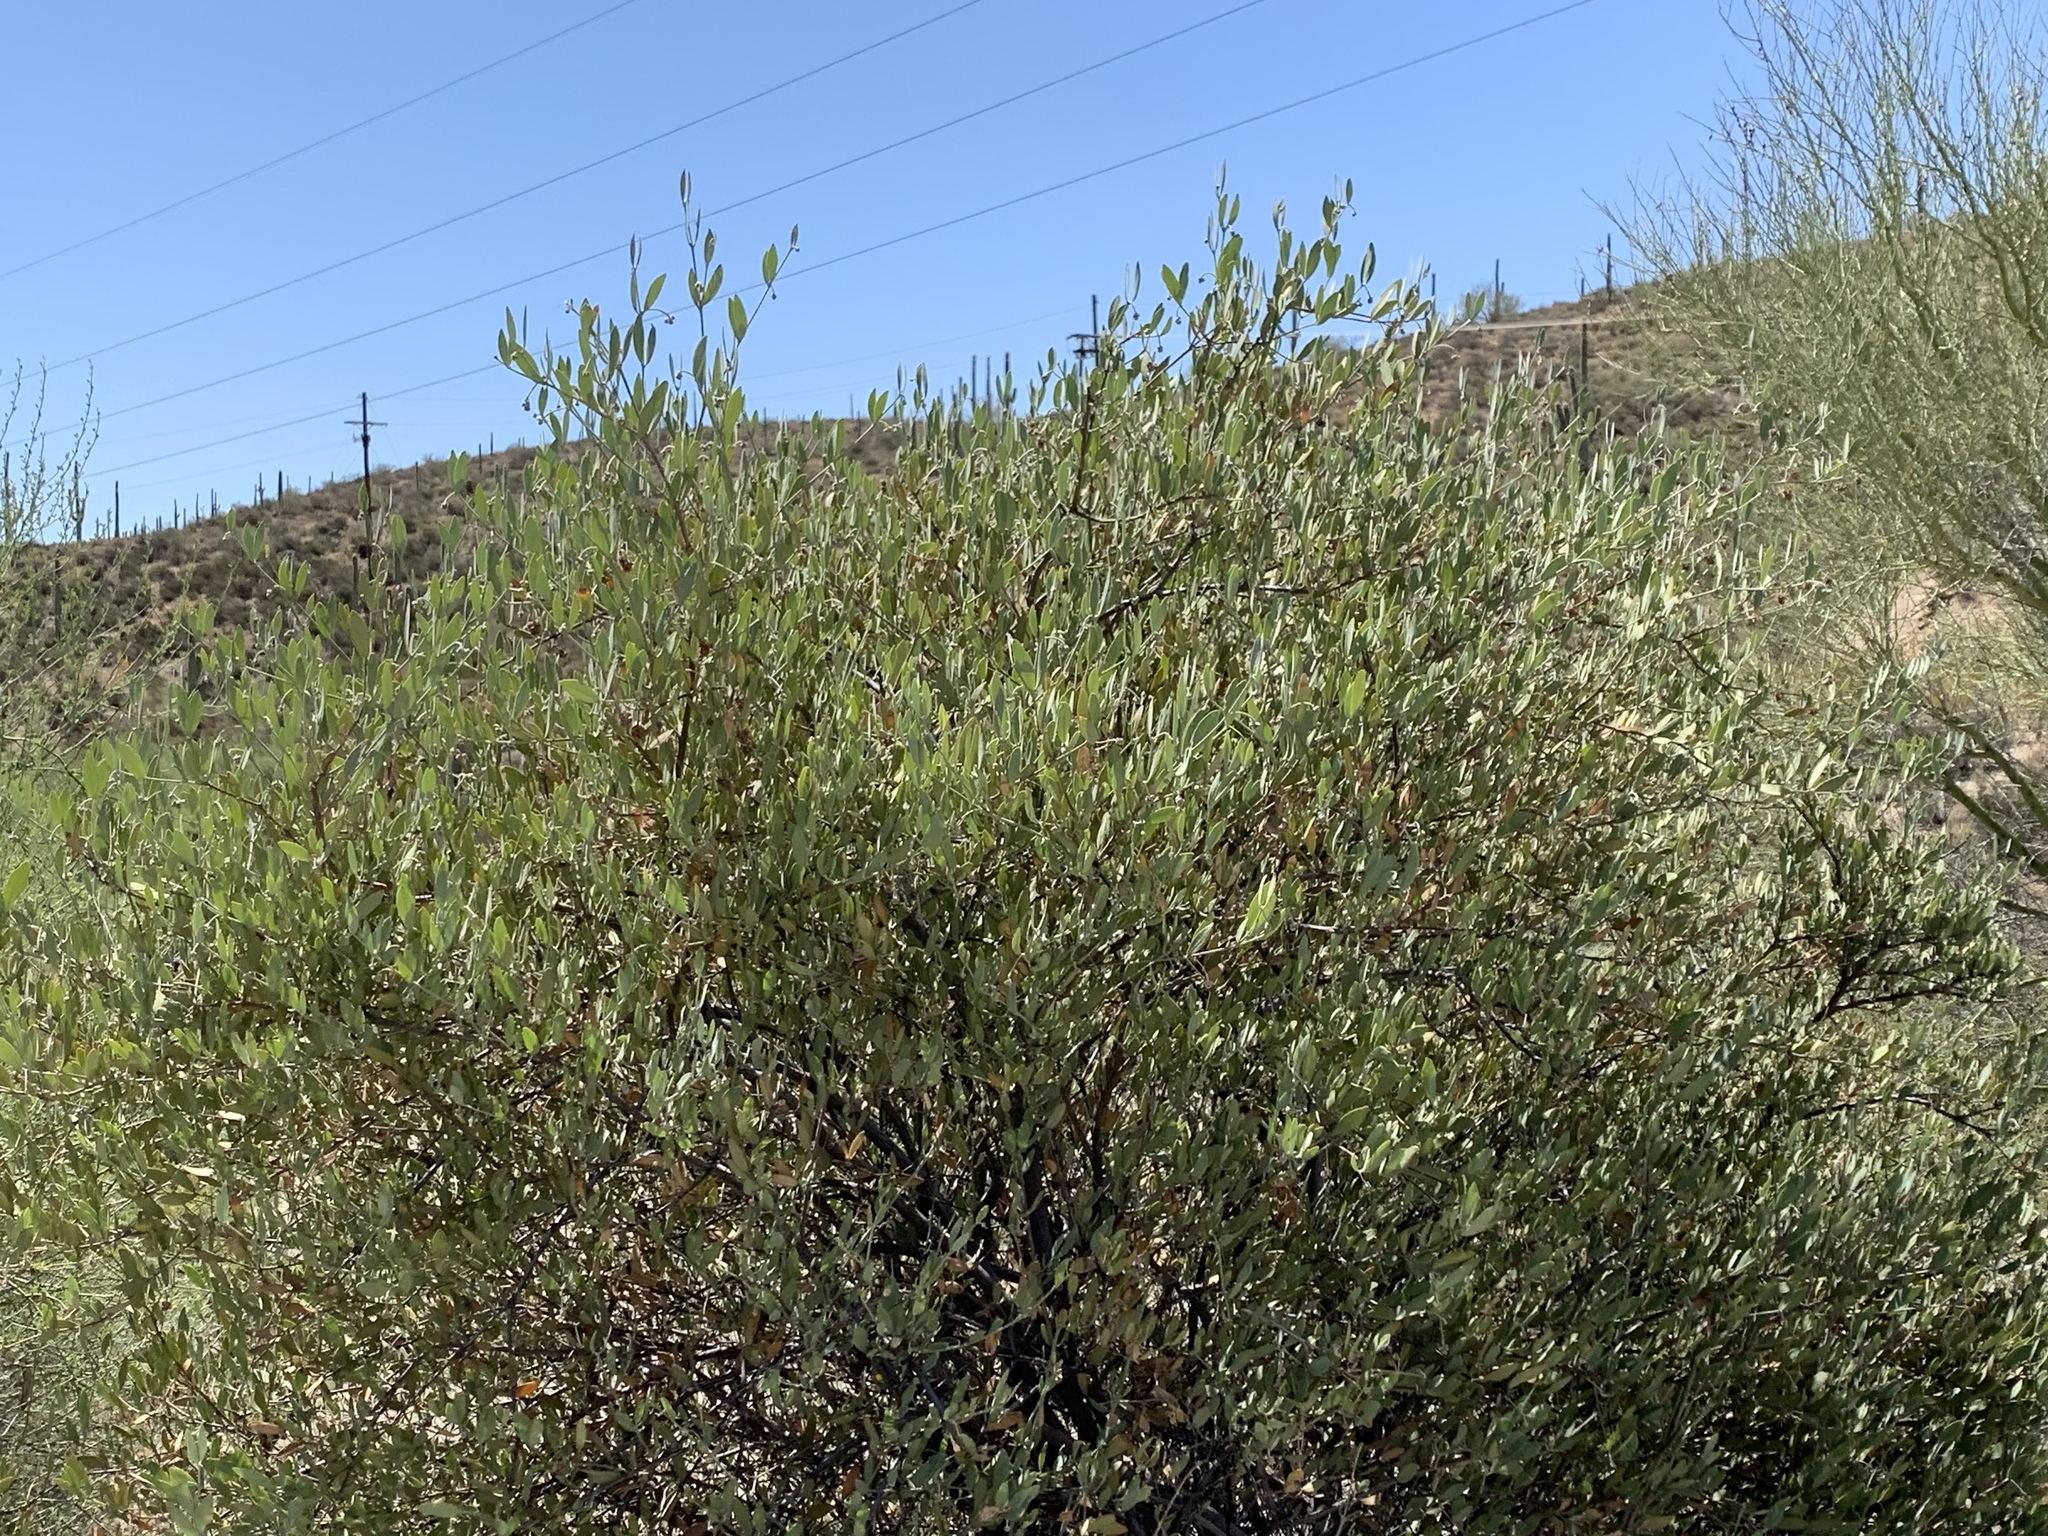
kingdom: Plantae
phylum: Tracheophyta
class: Magnoliopsida
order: Caryophyllales
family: Simmondsiaceae
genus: Simmondsia
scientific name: Simmondsia chinensis
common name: Jojoba
